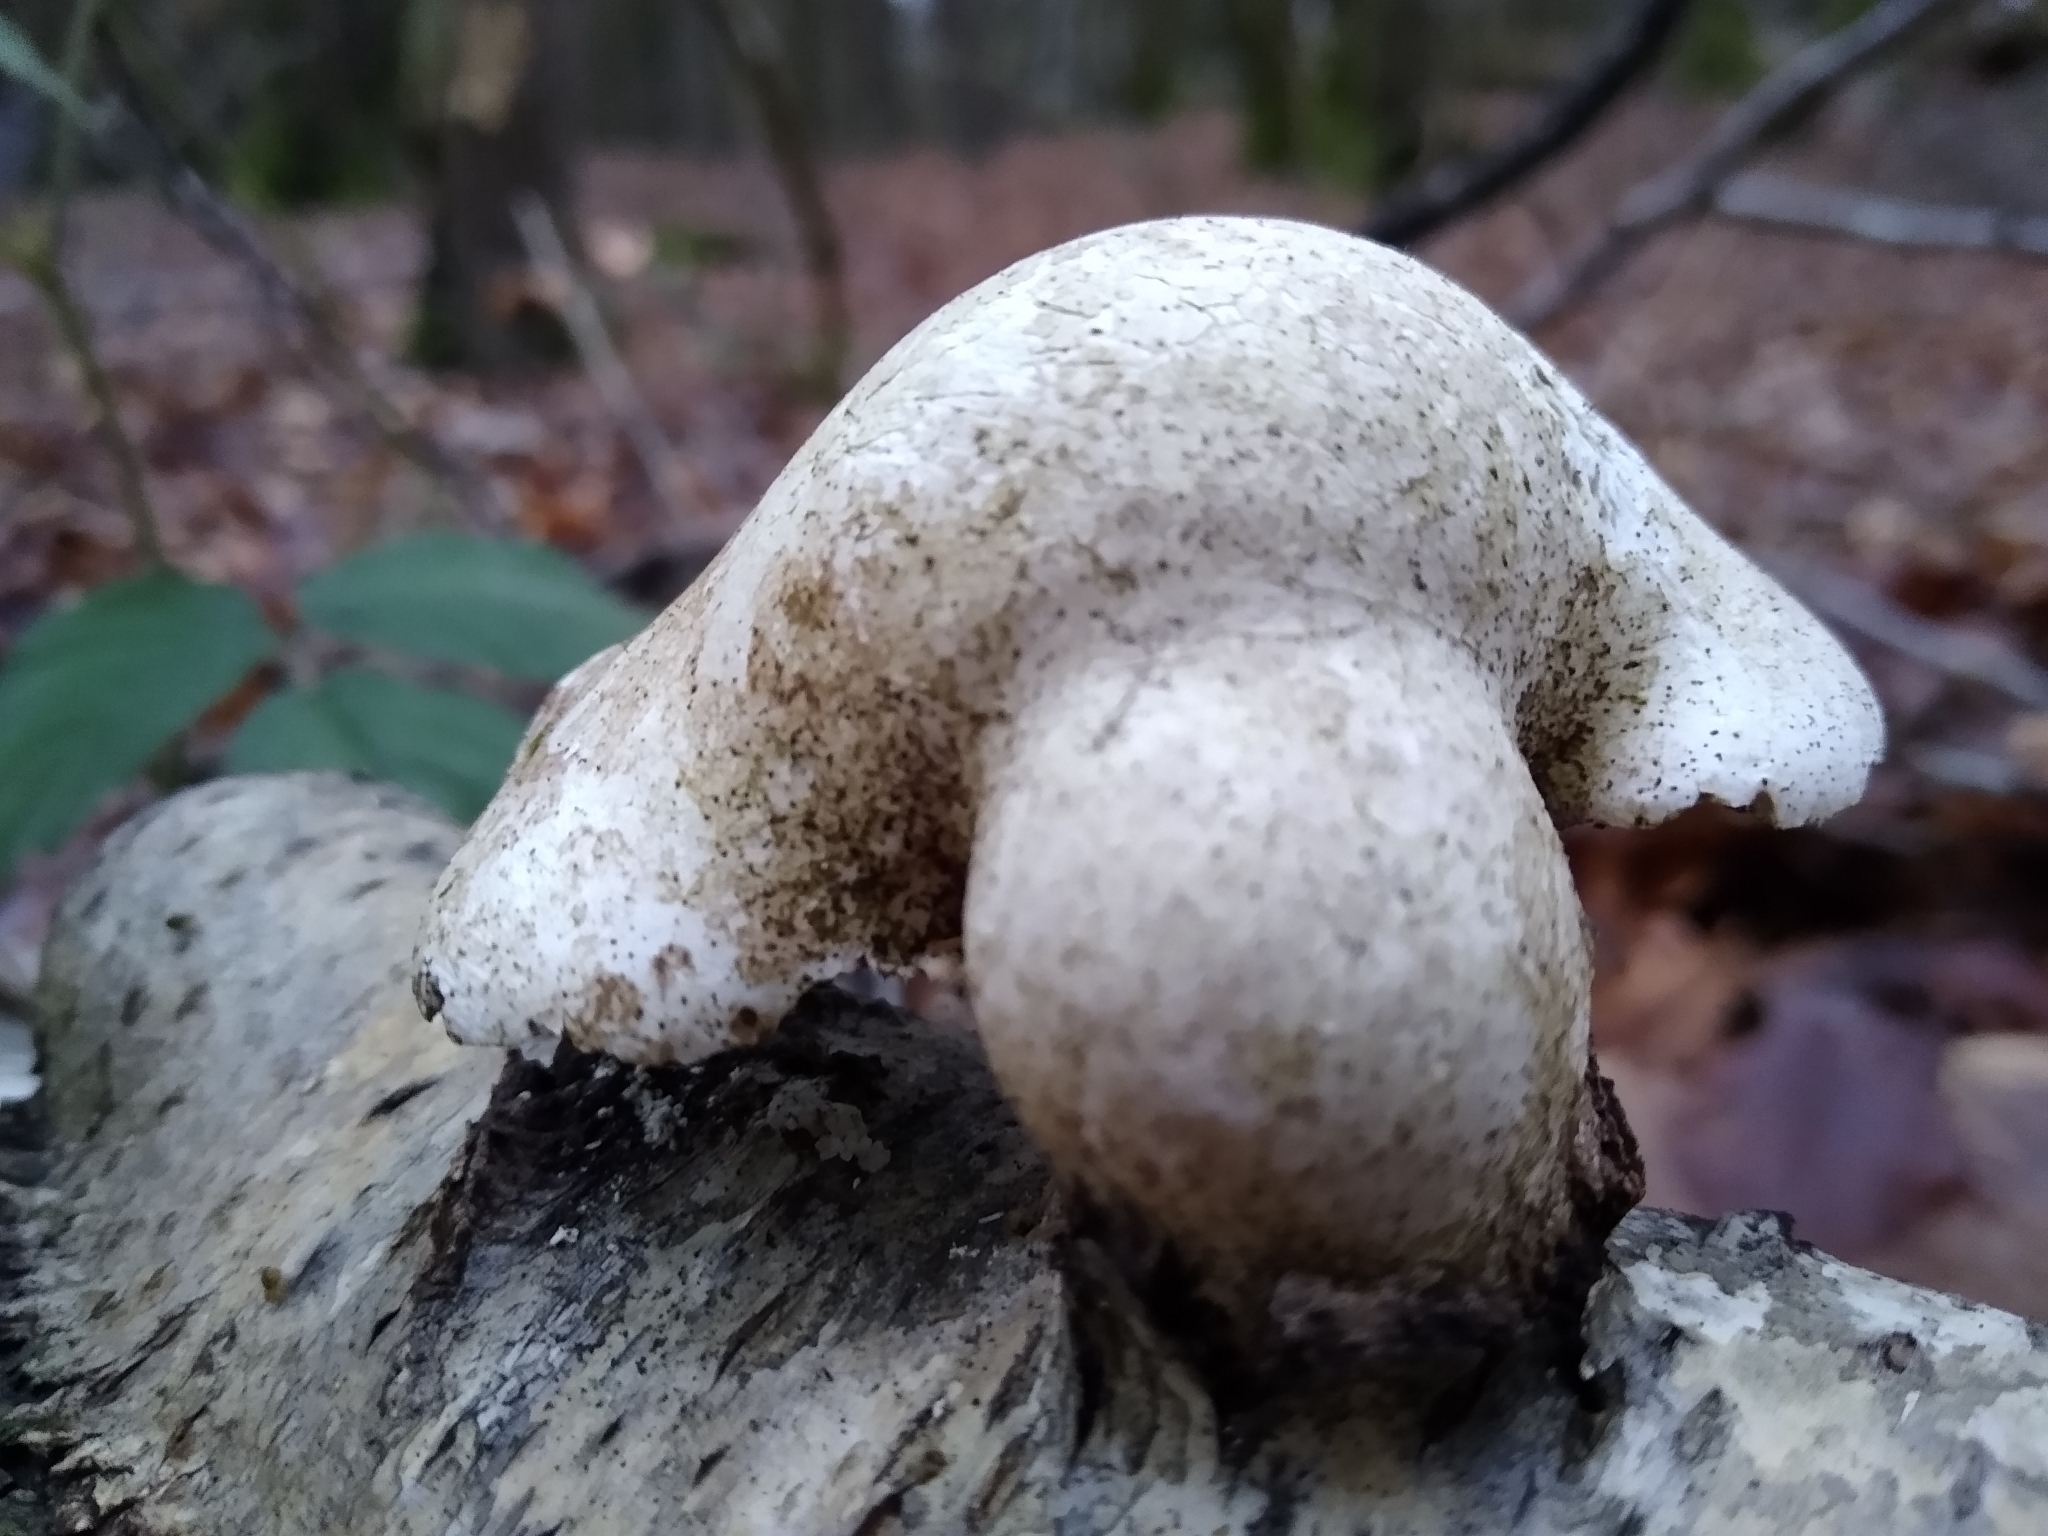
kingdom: Fungi
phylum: Basidiomycota
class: Agaricomycetes
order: Polyporales
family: Fomitopsidaceae
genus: Fomitopsis
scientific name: Fomitopsis betulina
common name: Birch polypore
